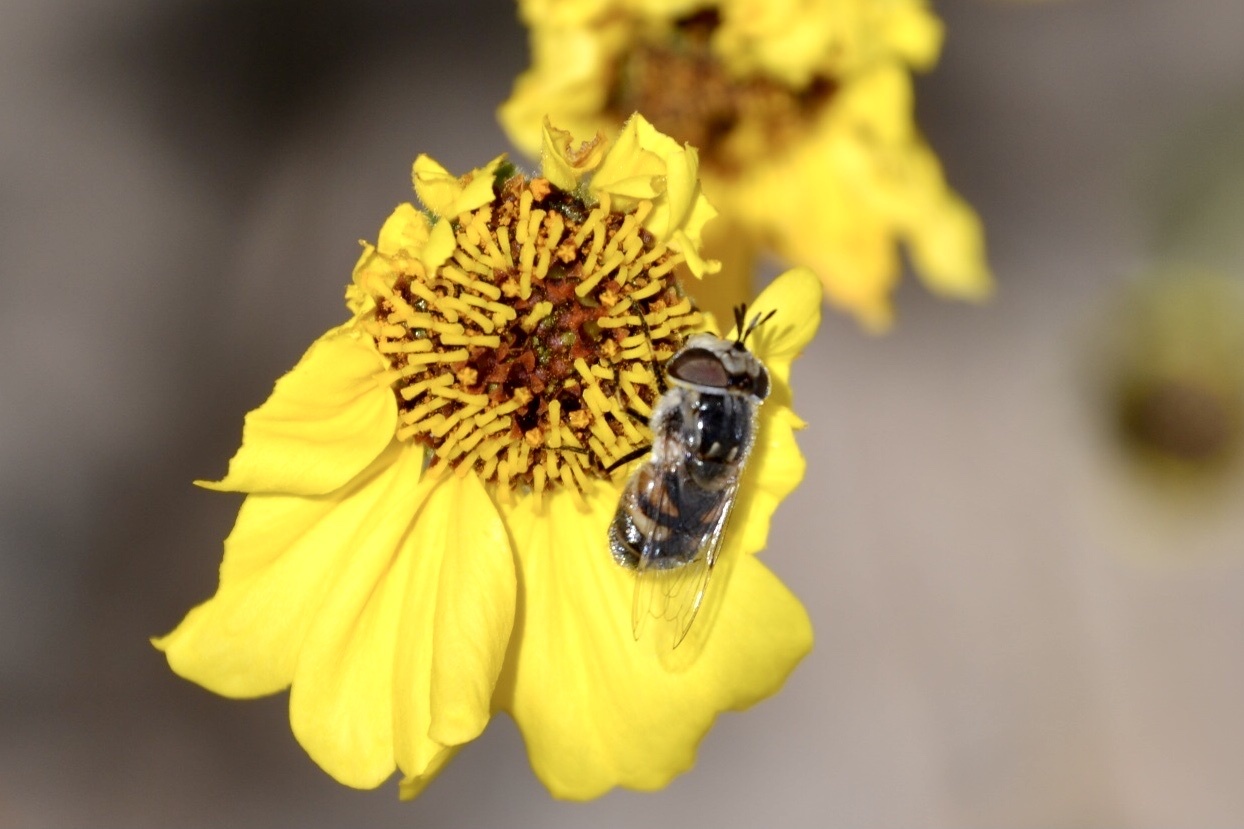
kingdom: Animalia
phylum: Arthropoda
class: Insecta
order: Diptera
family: Syrphidae
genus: Copestylum
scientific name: Copestylum lentum
